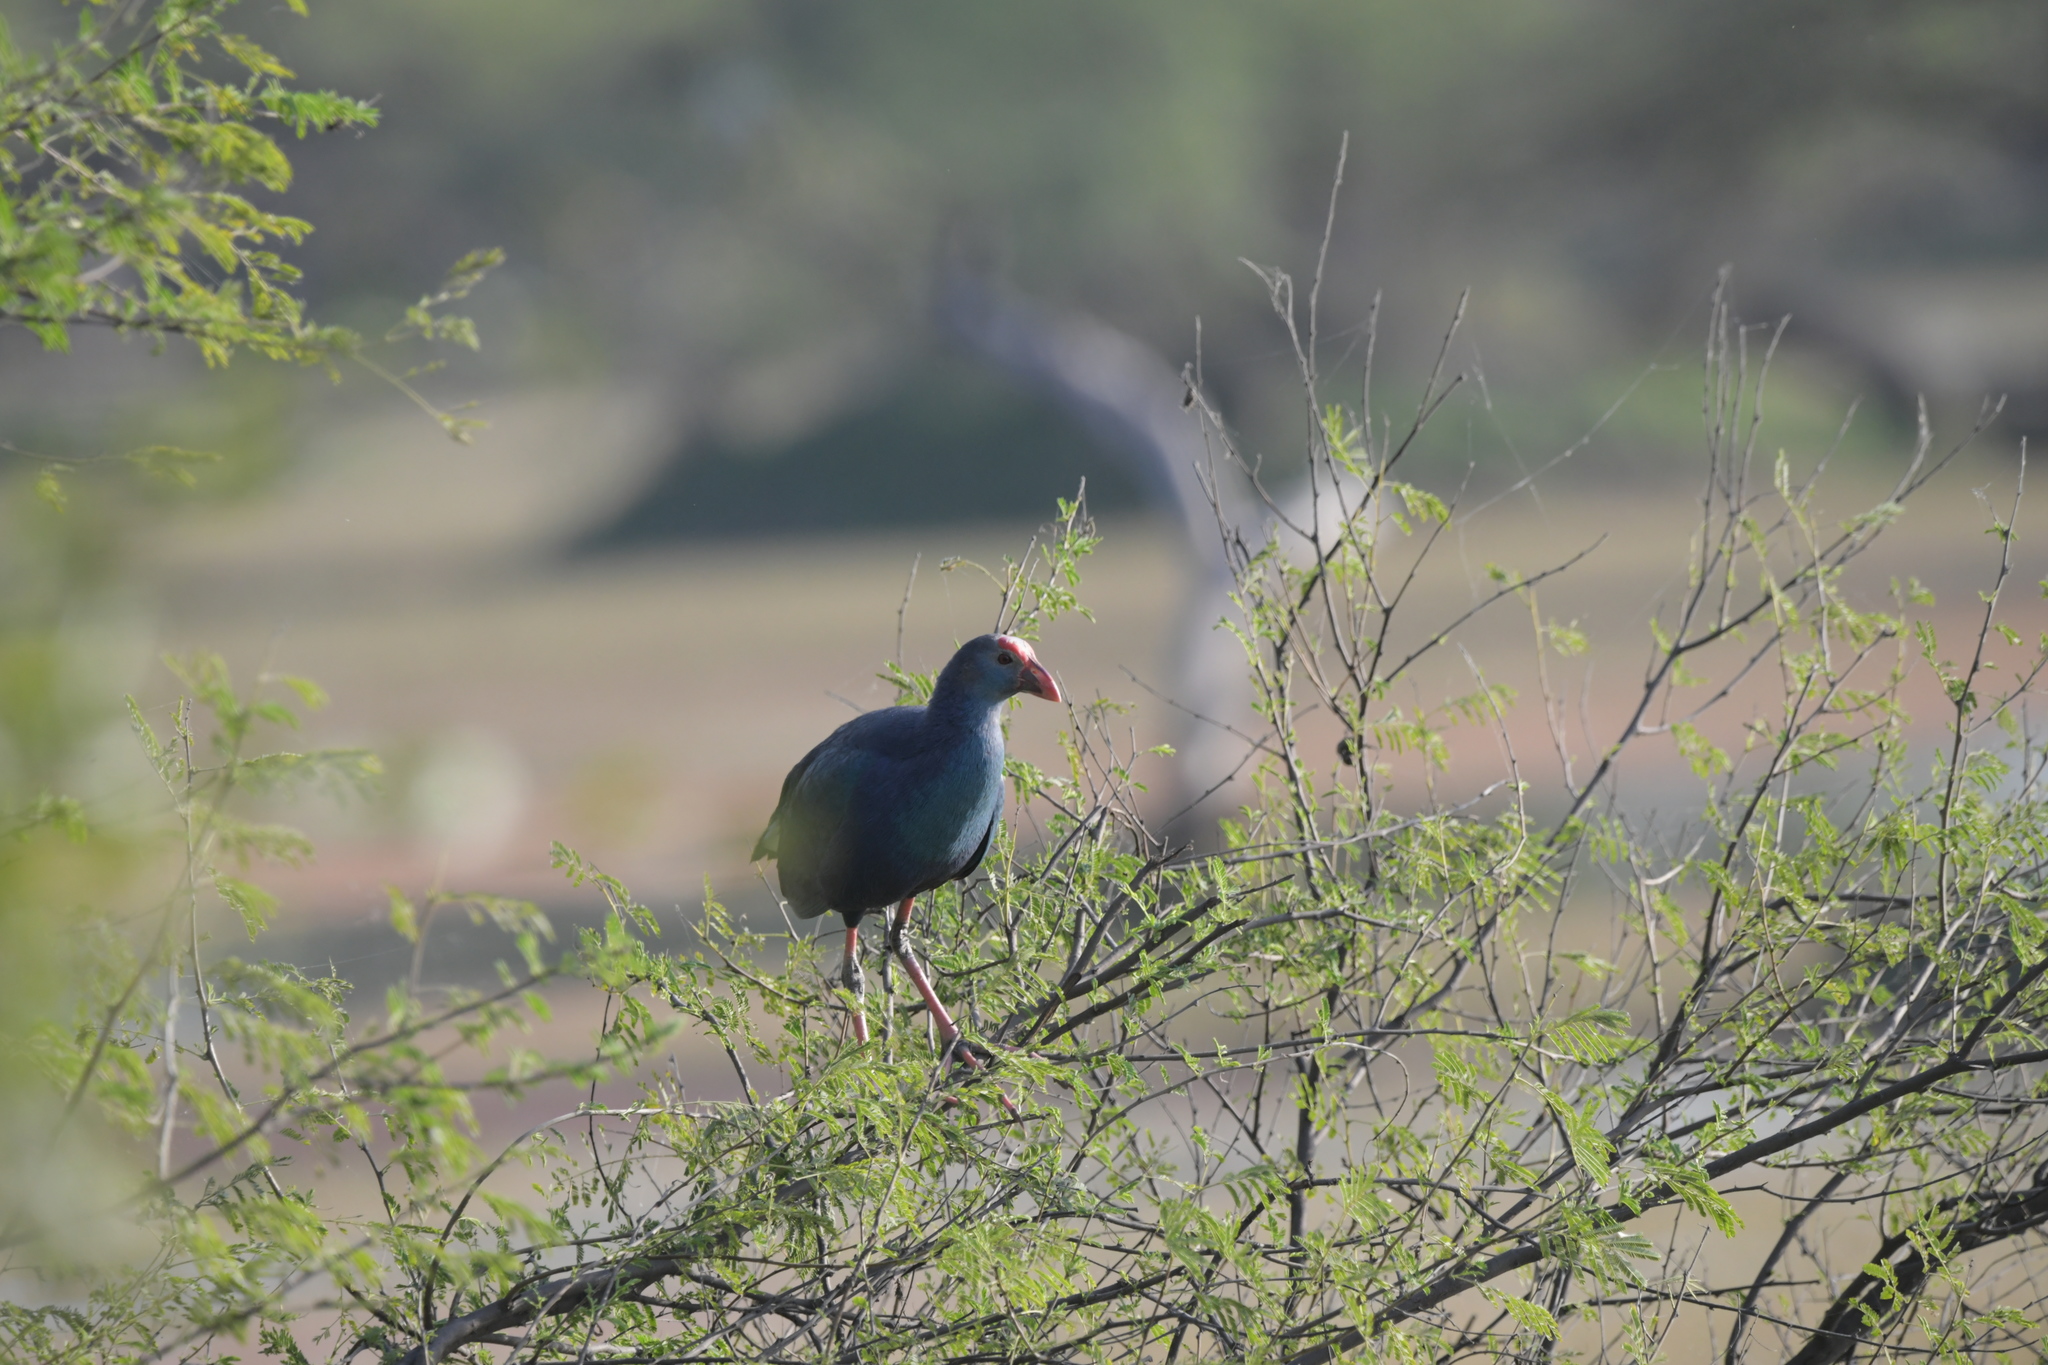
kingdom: Animalia
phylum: Chordata
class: Aves
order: Gruiformes
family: Rallidae
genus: Porphyrio
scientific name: Porphyrio porphyrio
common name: Purple swamphen
